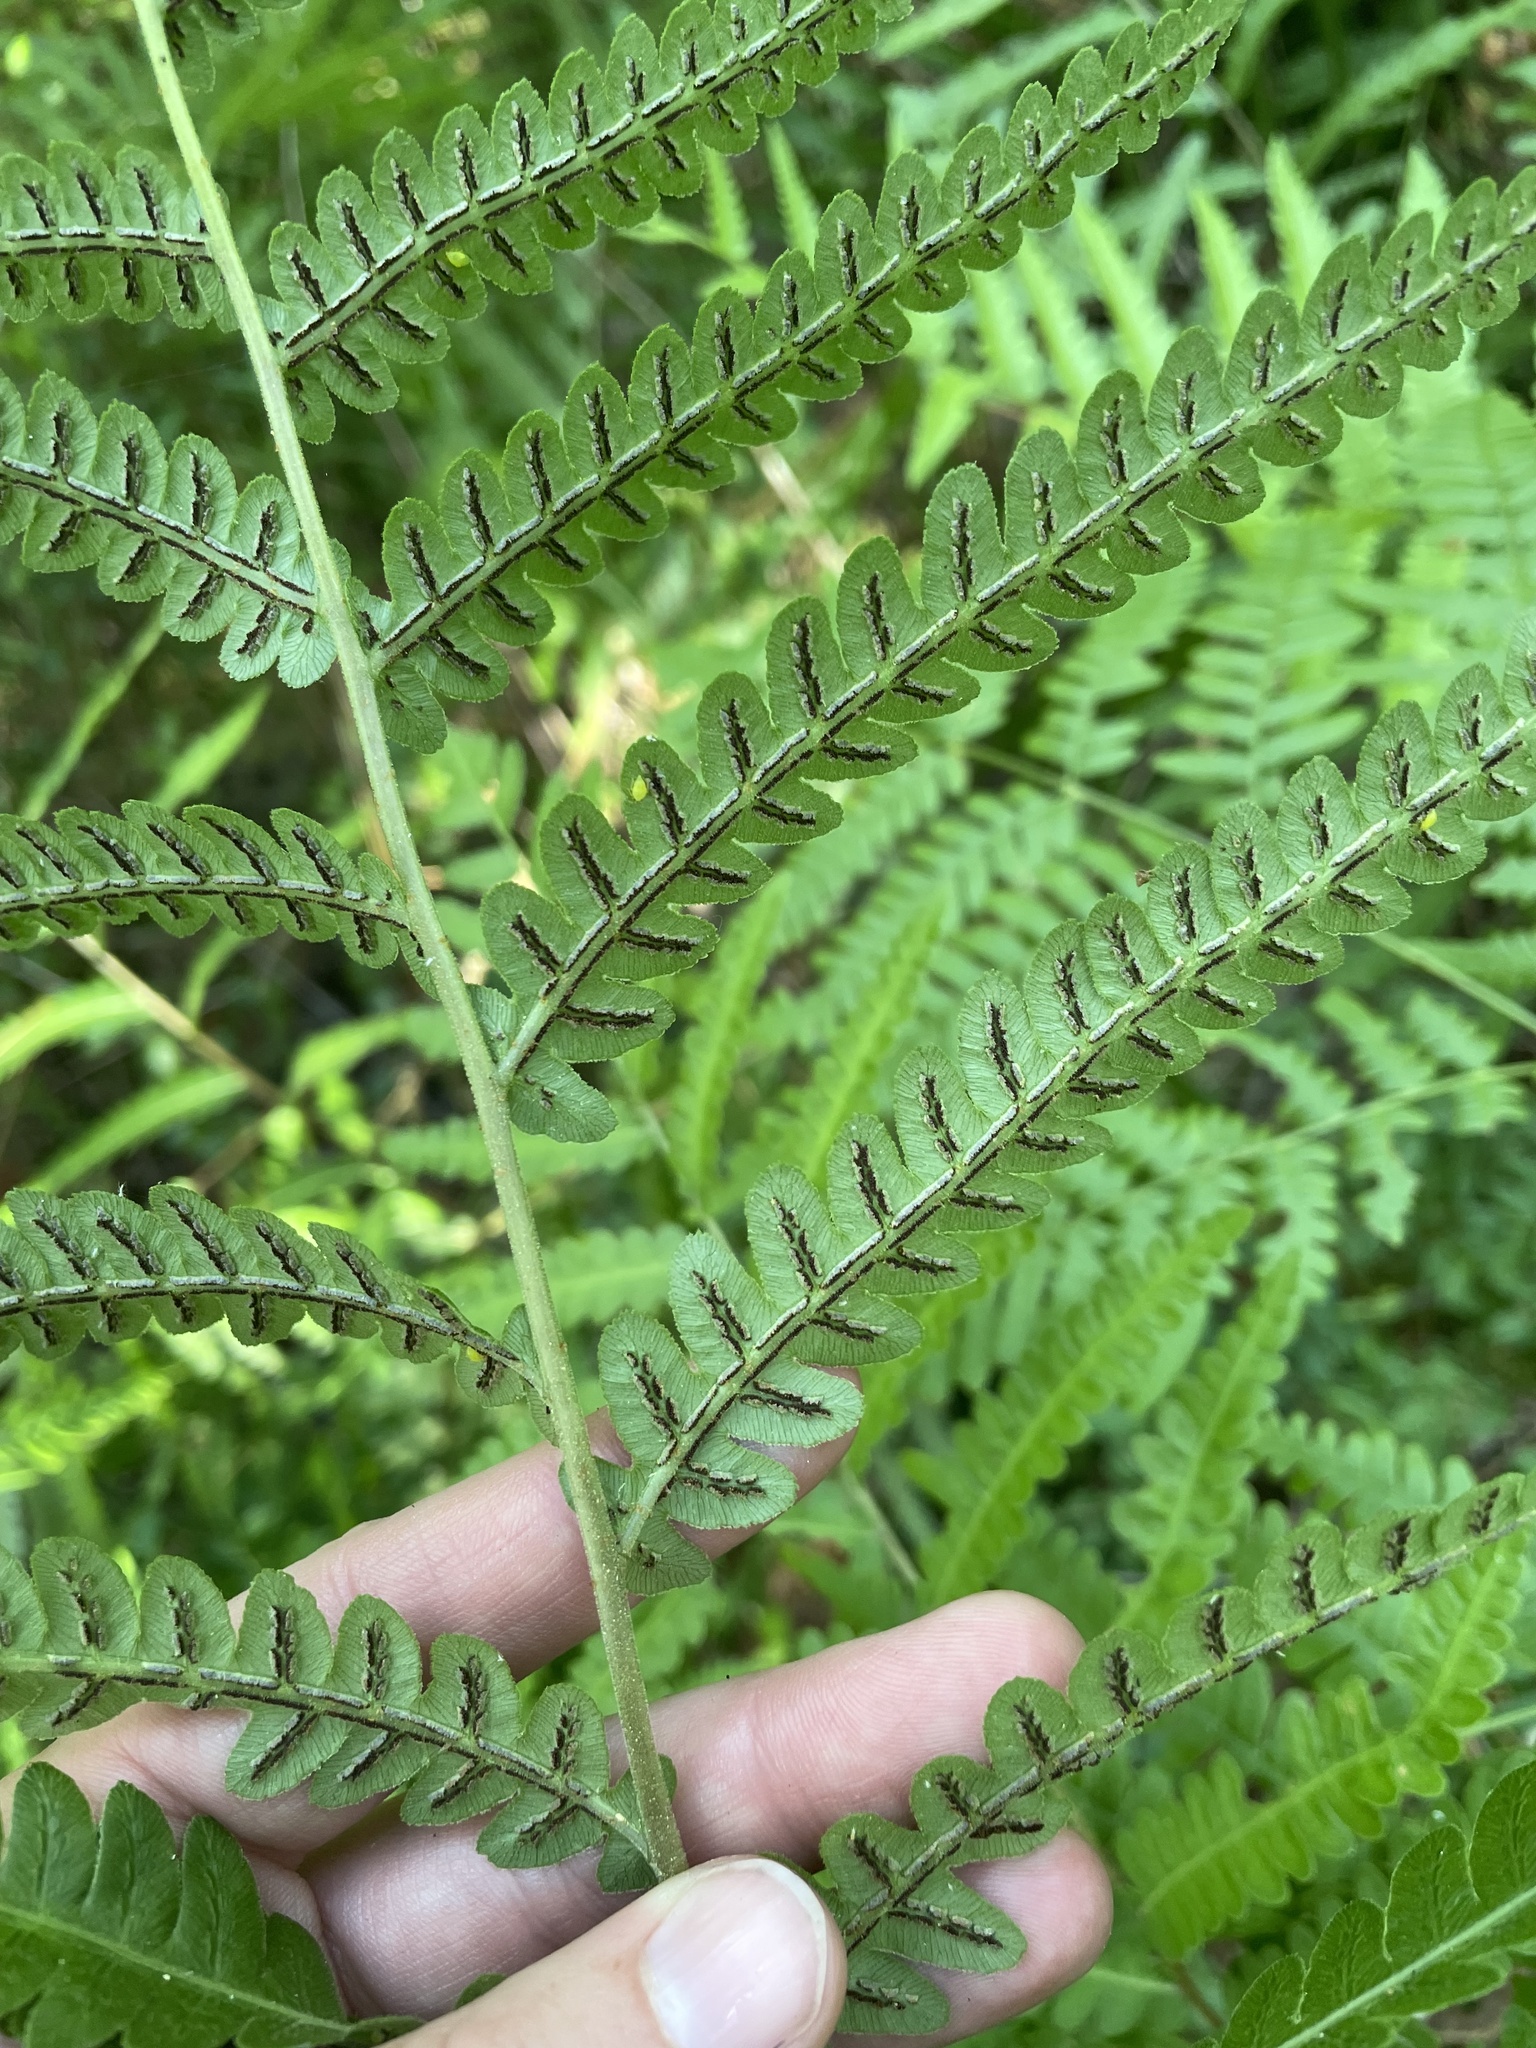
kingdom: Plantae
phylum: Tracheophyta
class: Polypodiopsida
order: Polypodiales
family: Blechnaceae
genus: Anchistea
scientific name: Anchistea virginica
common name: Virginia chain fern
